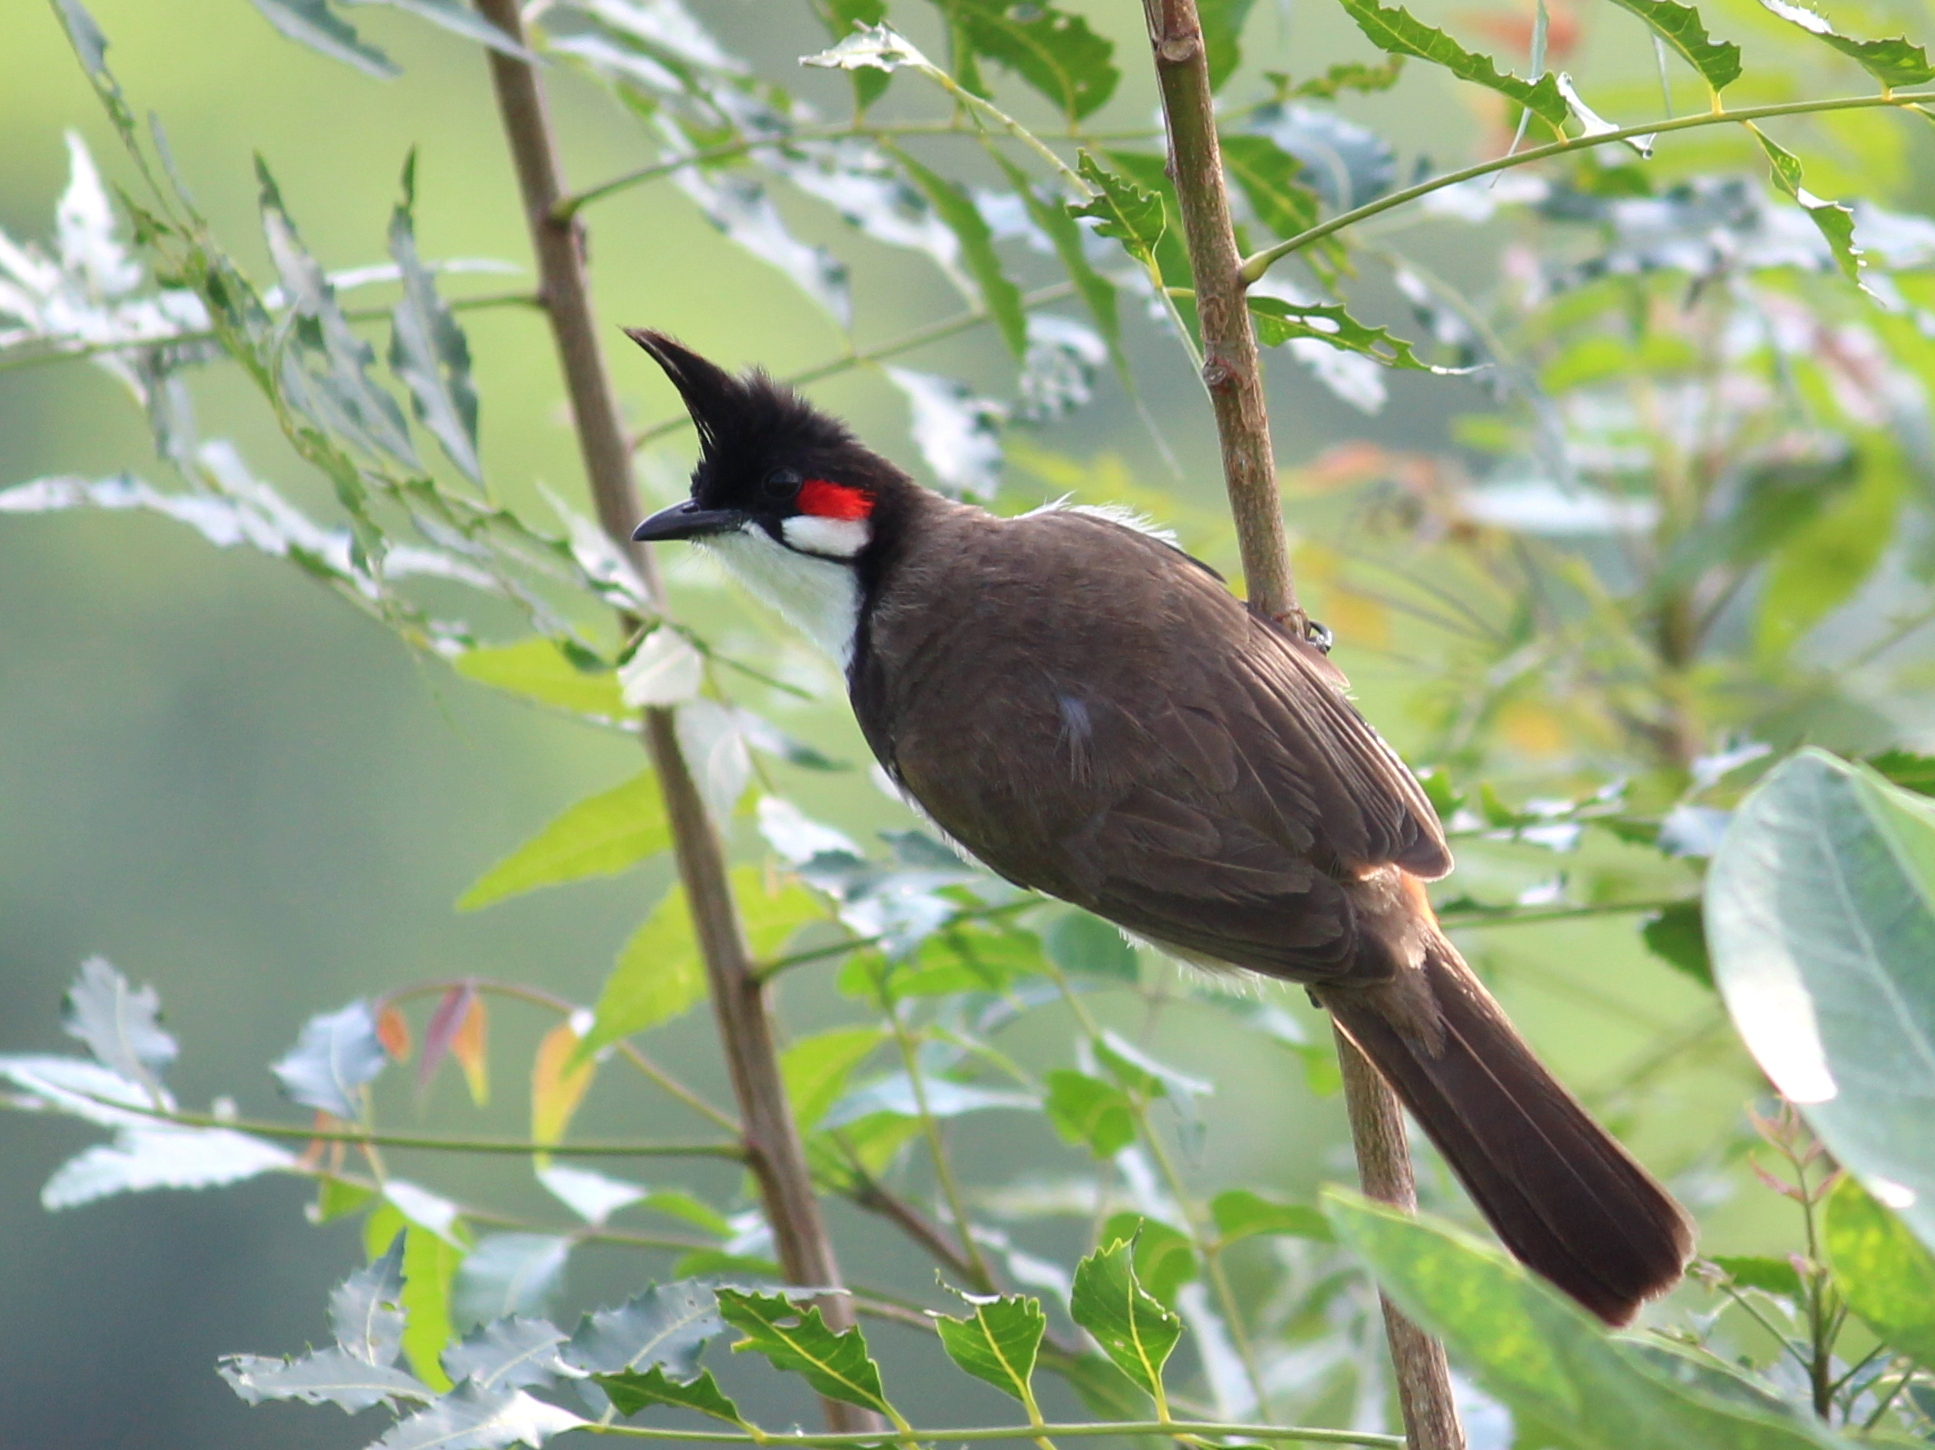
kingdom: Animalia
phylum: Chordata
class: Aves
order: Passeriformes
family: Pycnonotidae
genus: Pycnonotus
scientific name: Pycnonotus jocosus
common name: Red-whiskered bulbul
